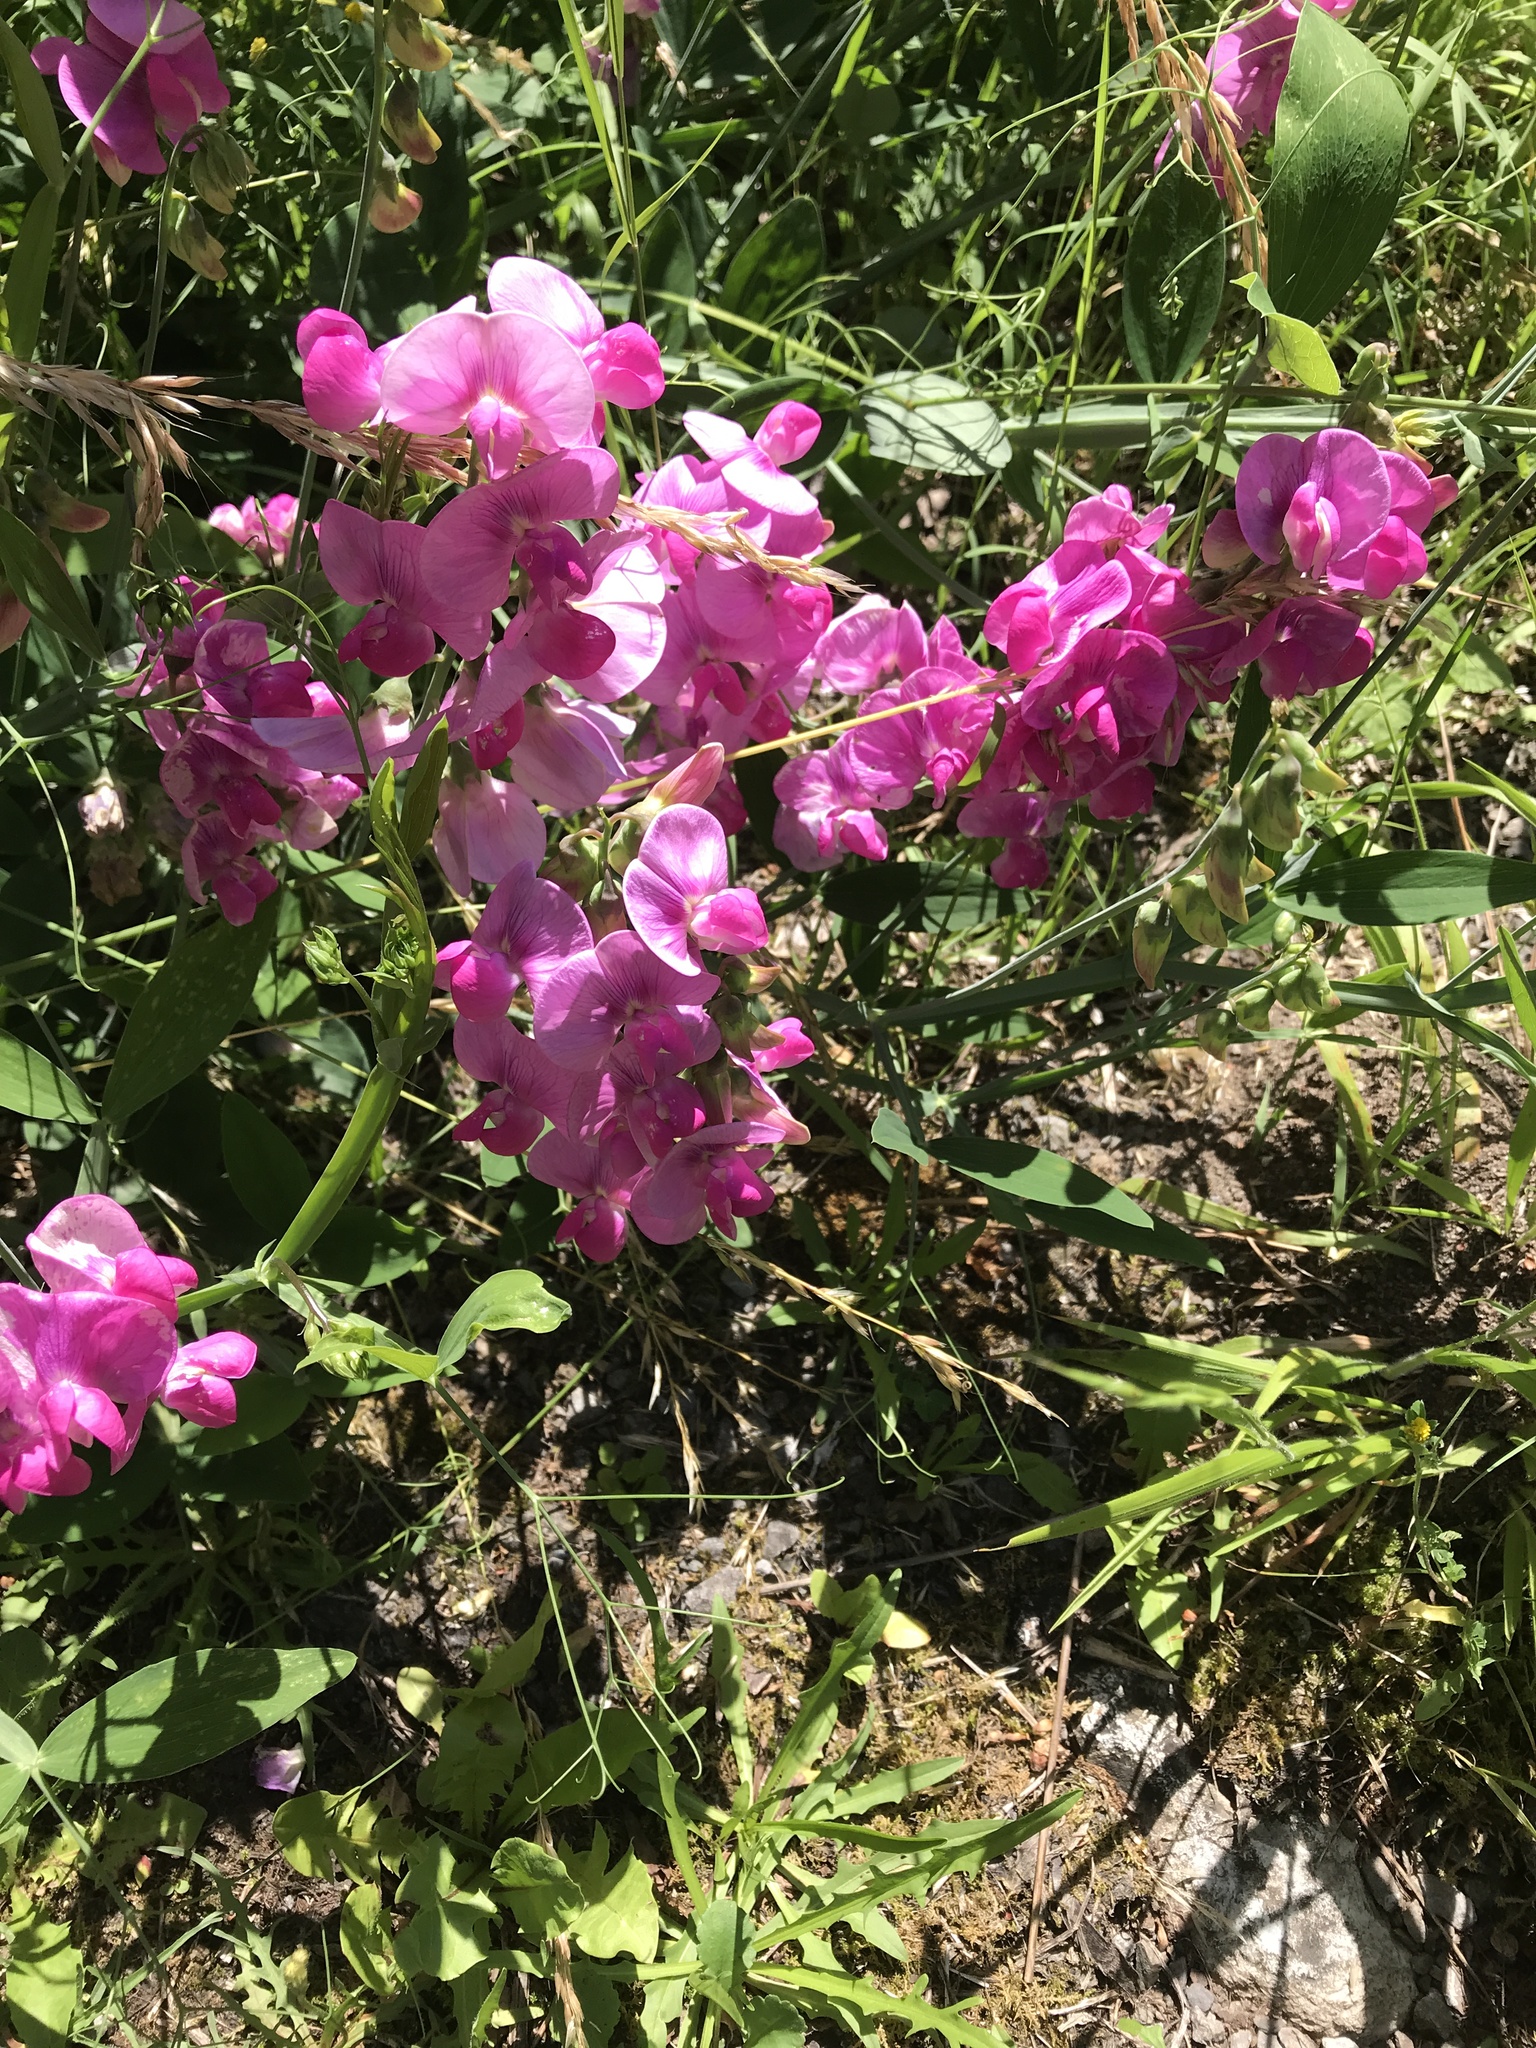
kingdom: Plantae
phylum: Tracheophyta
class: Magnoliopsida
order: Fabales
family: Fabaceae
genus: Lathyrus
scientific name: Lathyrus latifolius
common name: Perennial pea
